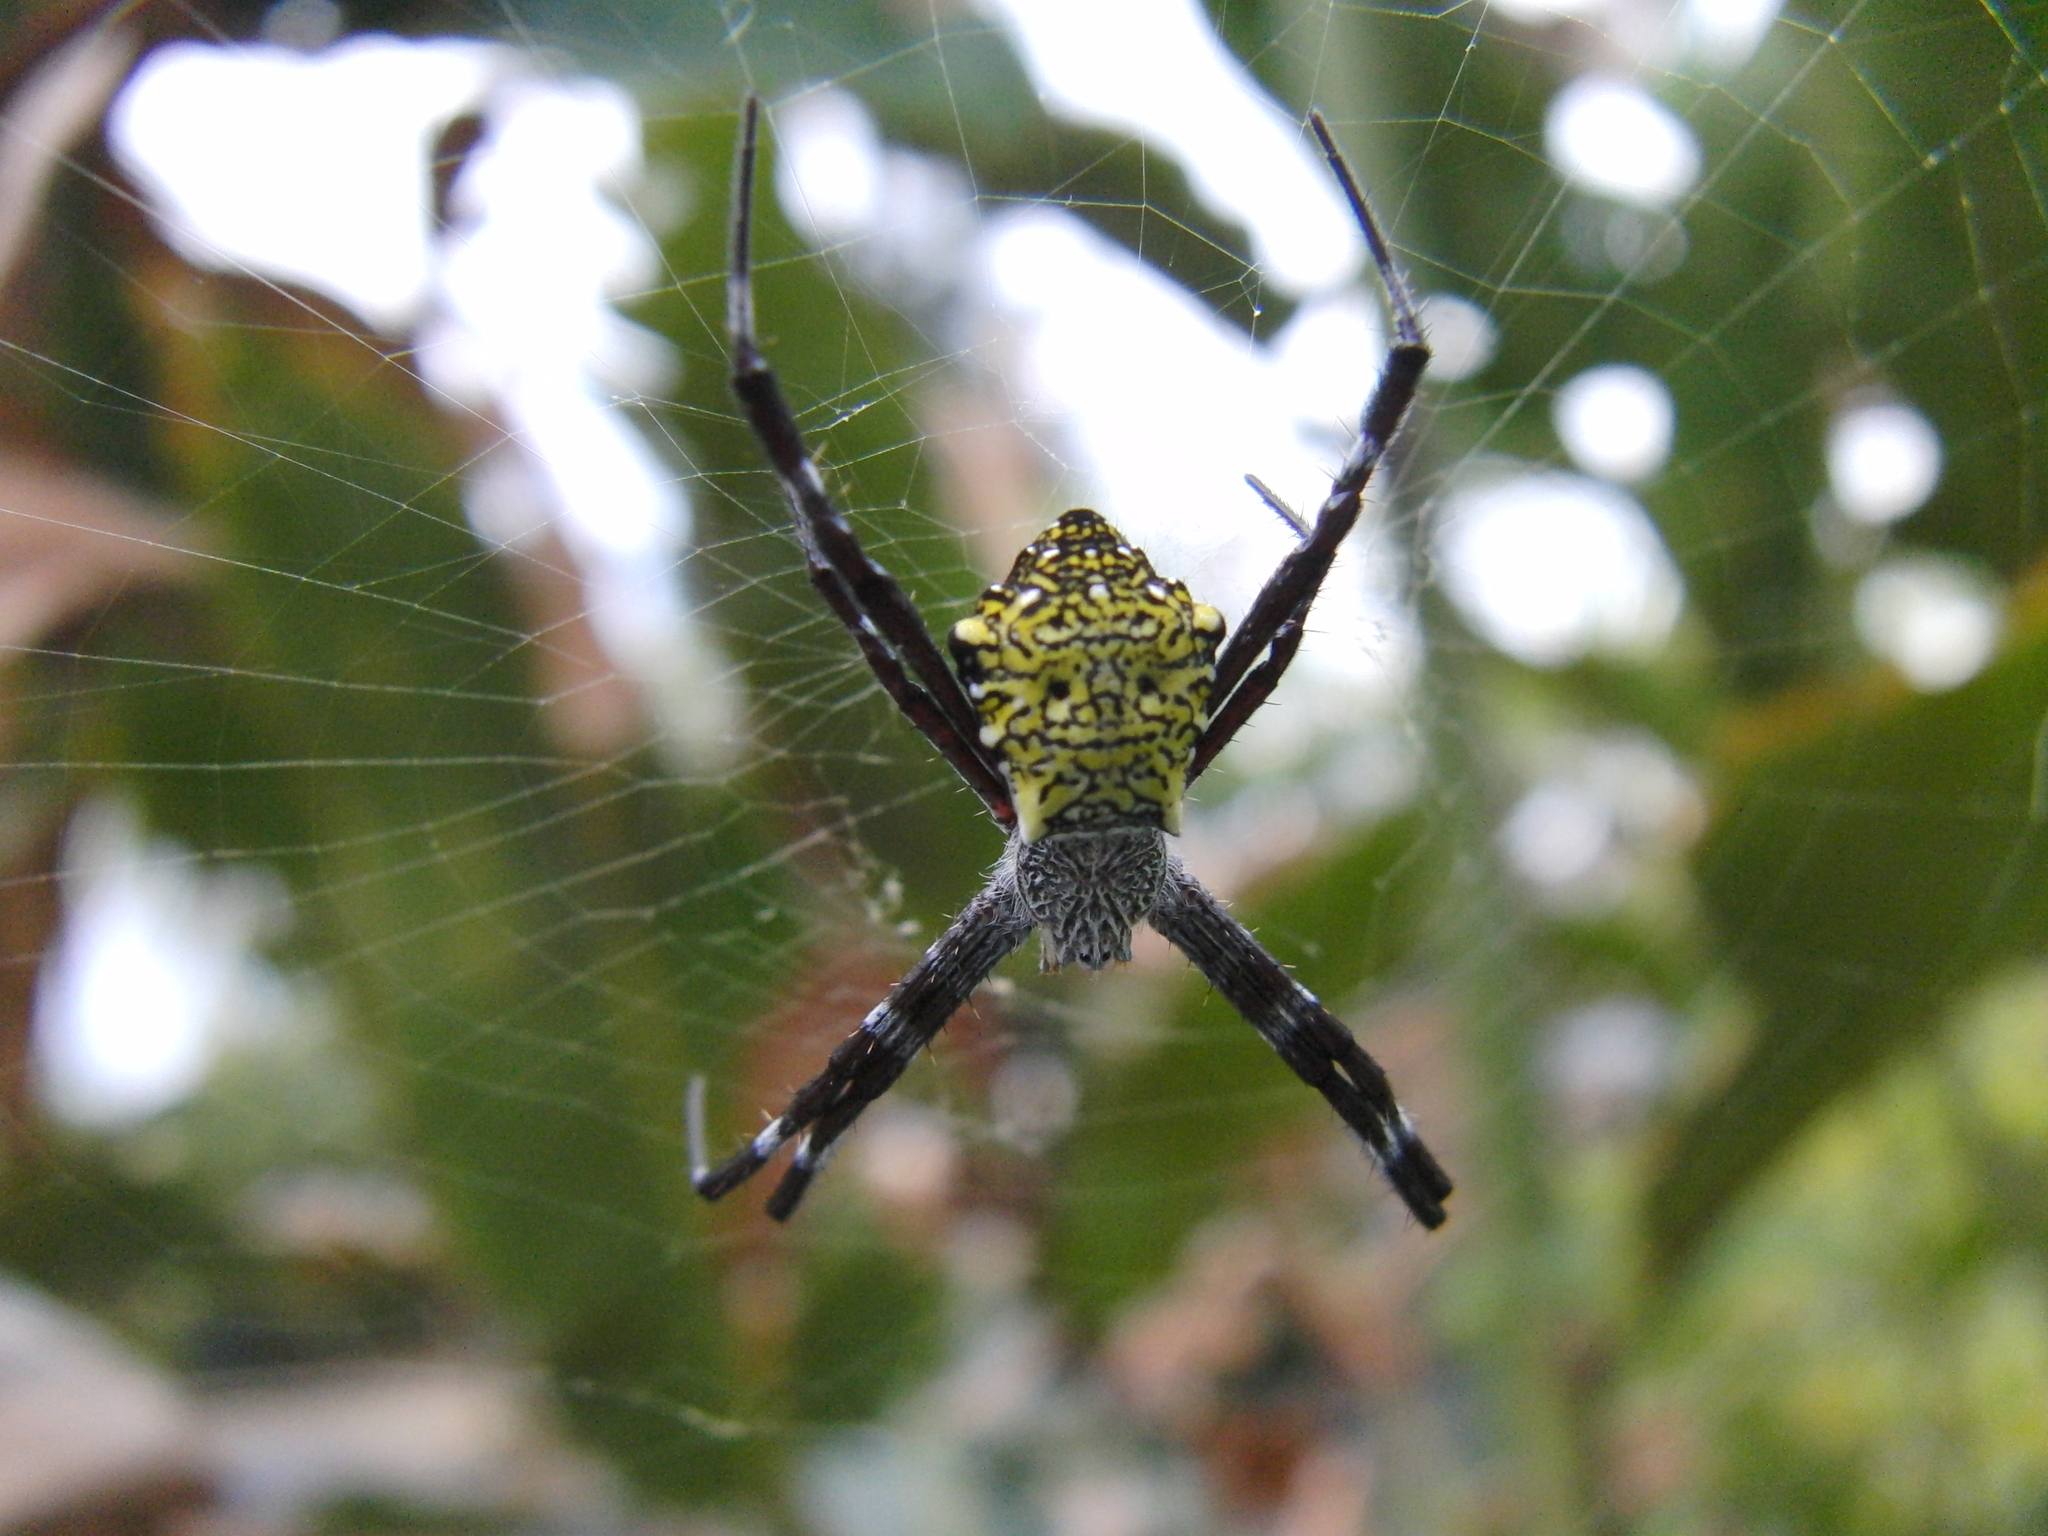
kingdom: Animalia
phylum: Arthropoda
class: Arachnida
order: Araneae
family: Araneidae
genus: Argiope
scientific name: Argiope appensa
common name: Garden spider
